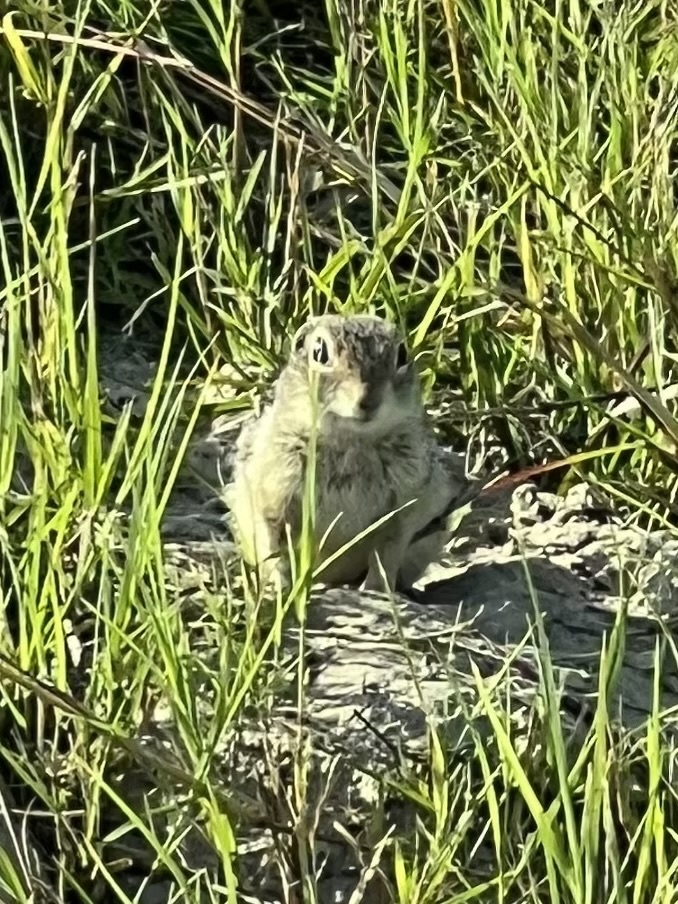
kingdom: Animalia
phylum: Chordata
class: Mammalia
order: Rodentia
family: Sciuridae
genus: Ictidomys
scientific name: Ictidomys parvidens
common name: Rio grande ground squirrel
